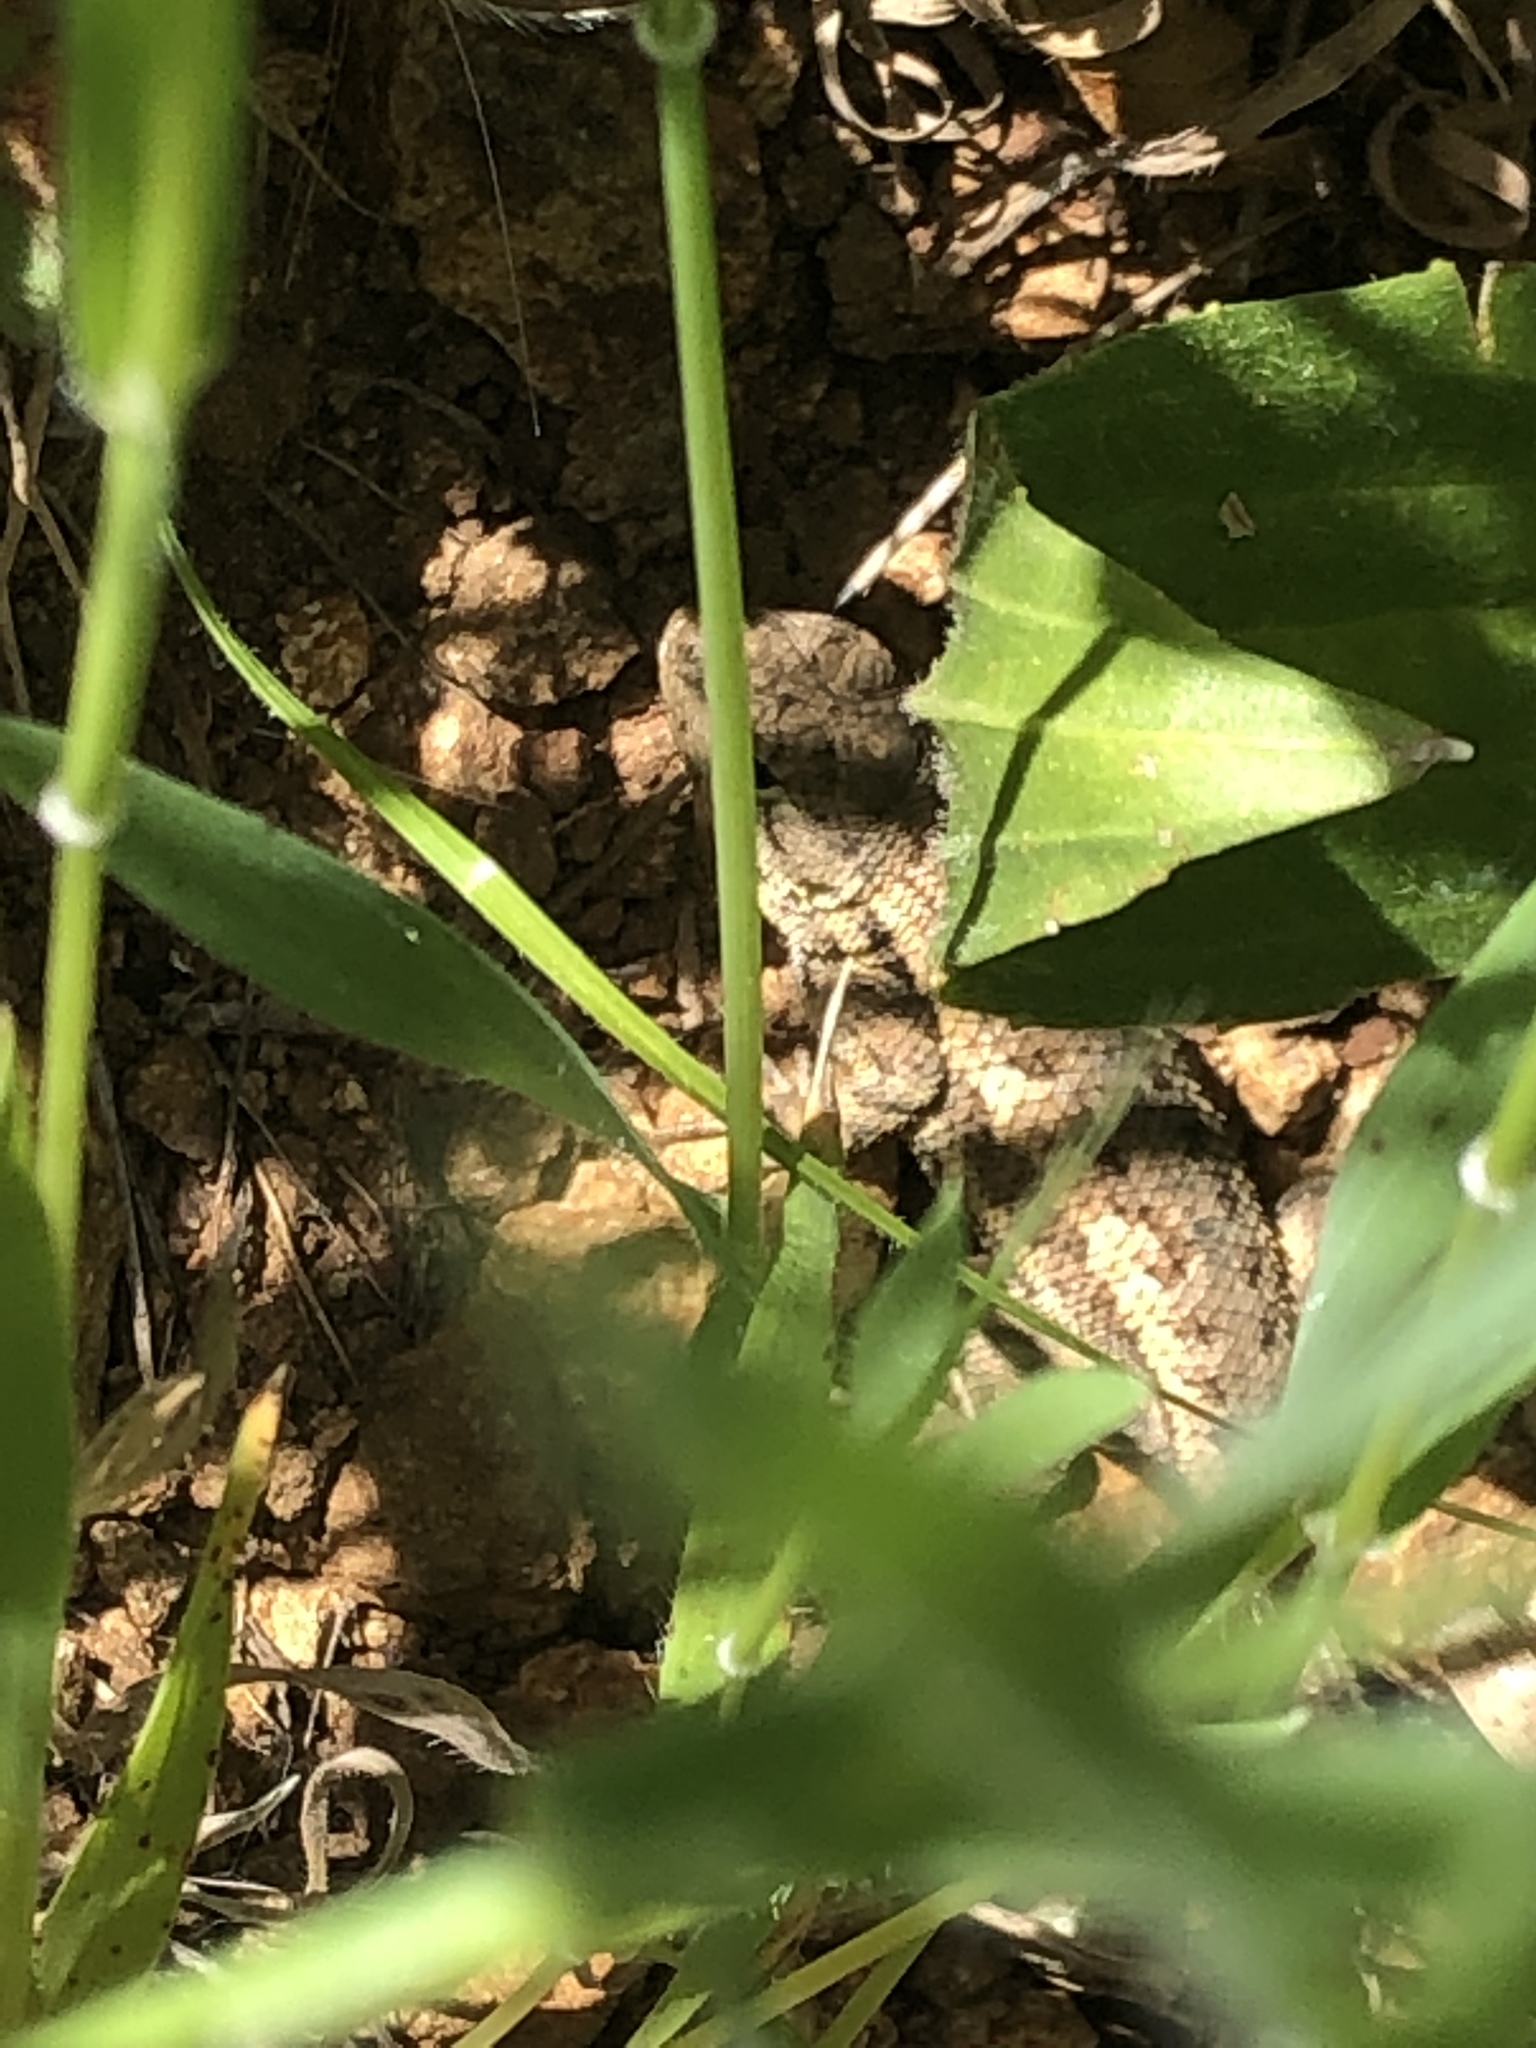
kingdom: Animalia
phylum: Chordata
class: Squamata
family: Phrynosomatidae
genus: Sceloporus
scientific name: Sceloporus occidentalis
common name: Western fence lizard
